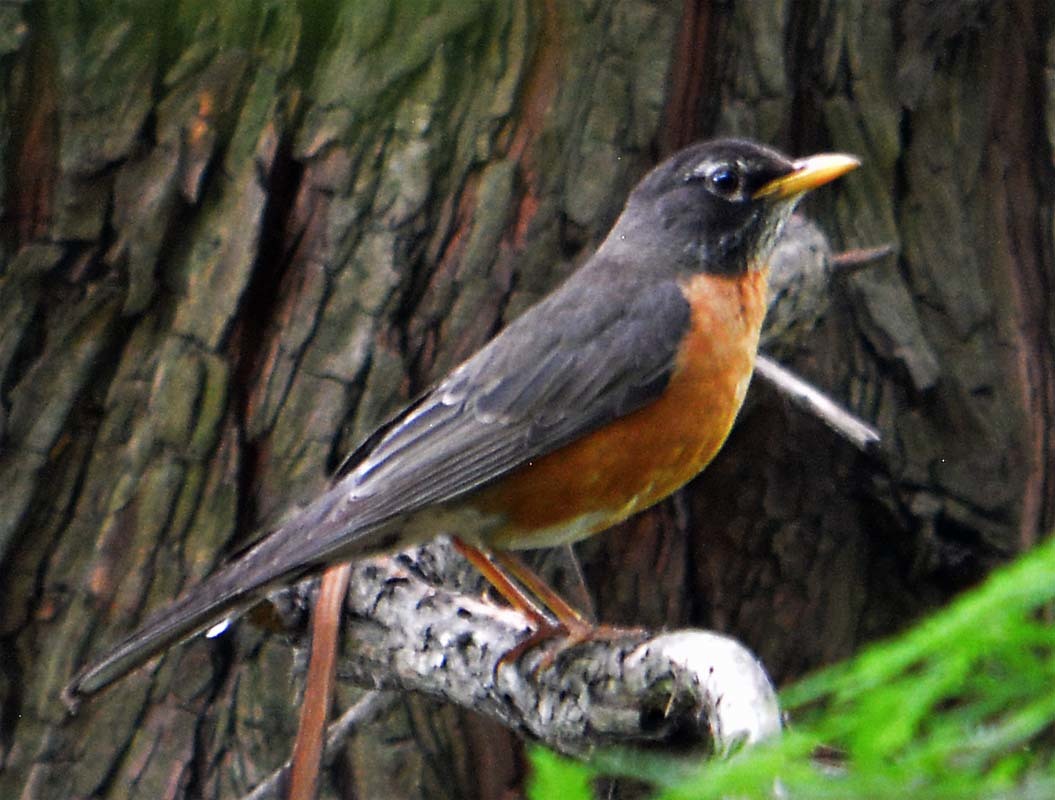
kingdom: Animalia
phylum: Chordata
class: Aves
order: Passeriformes
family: Turdidae
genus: Turdus
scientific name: Turdus migratorius
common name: American robin
